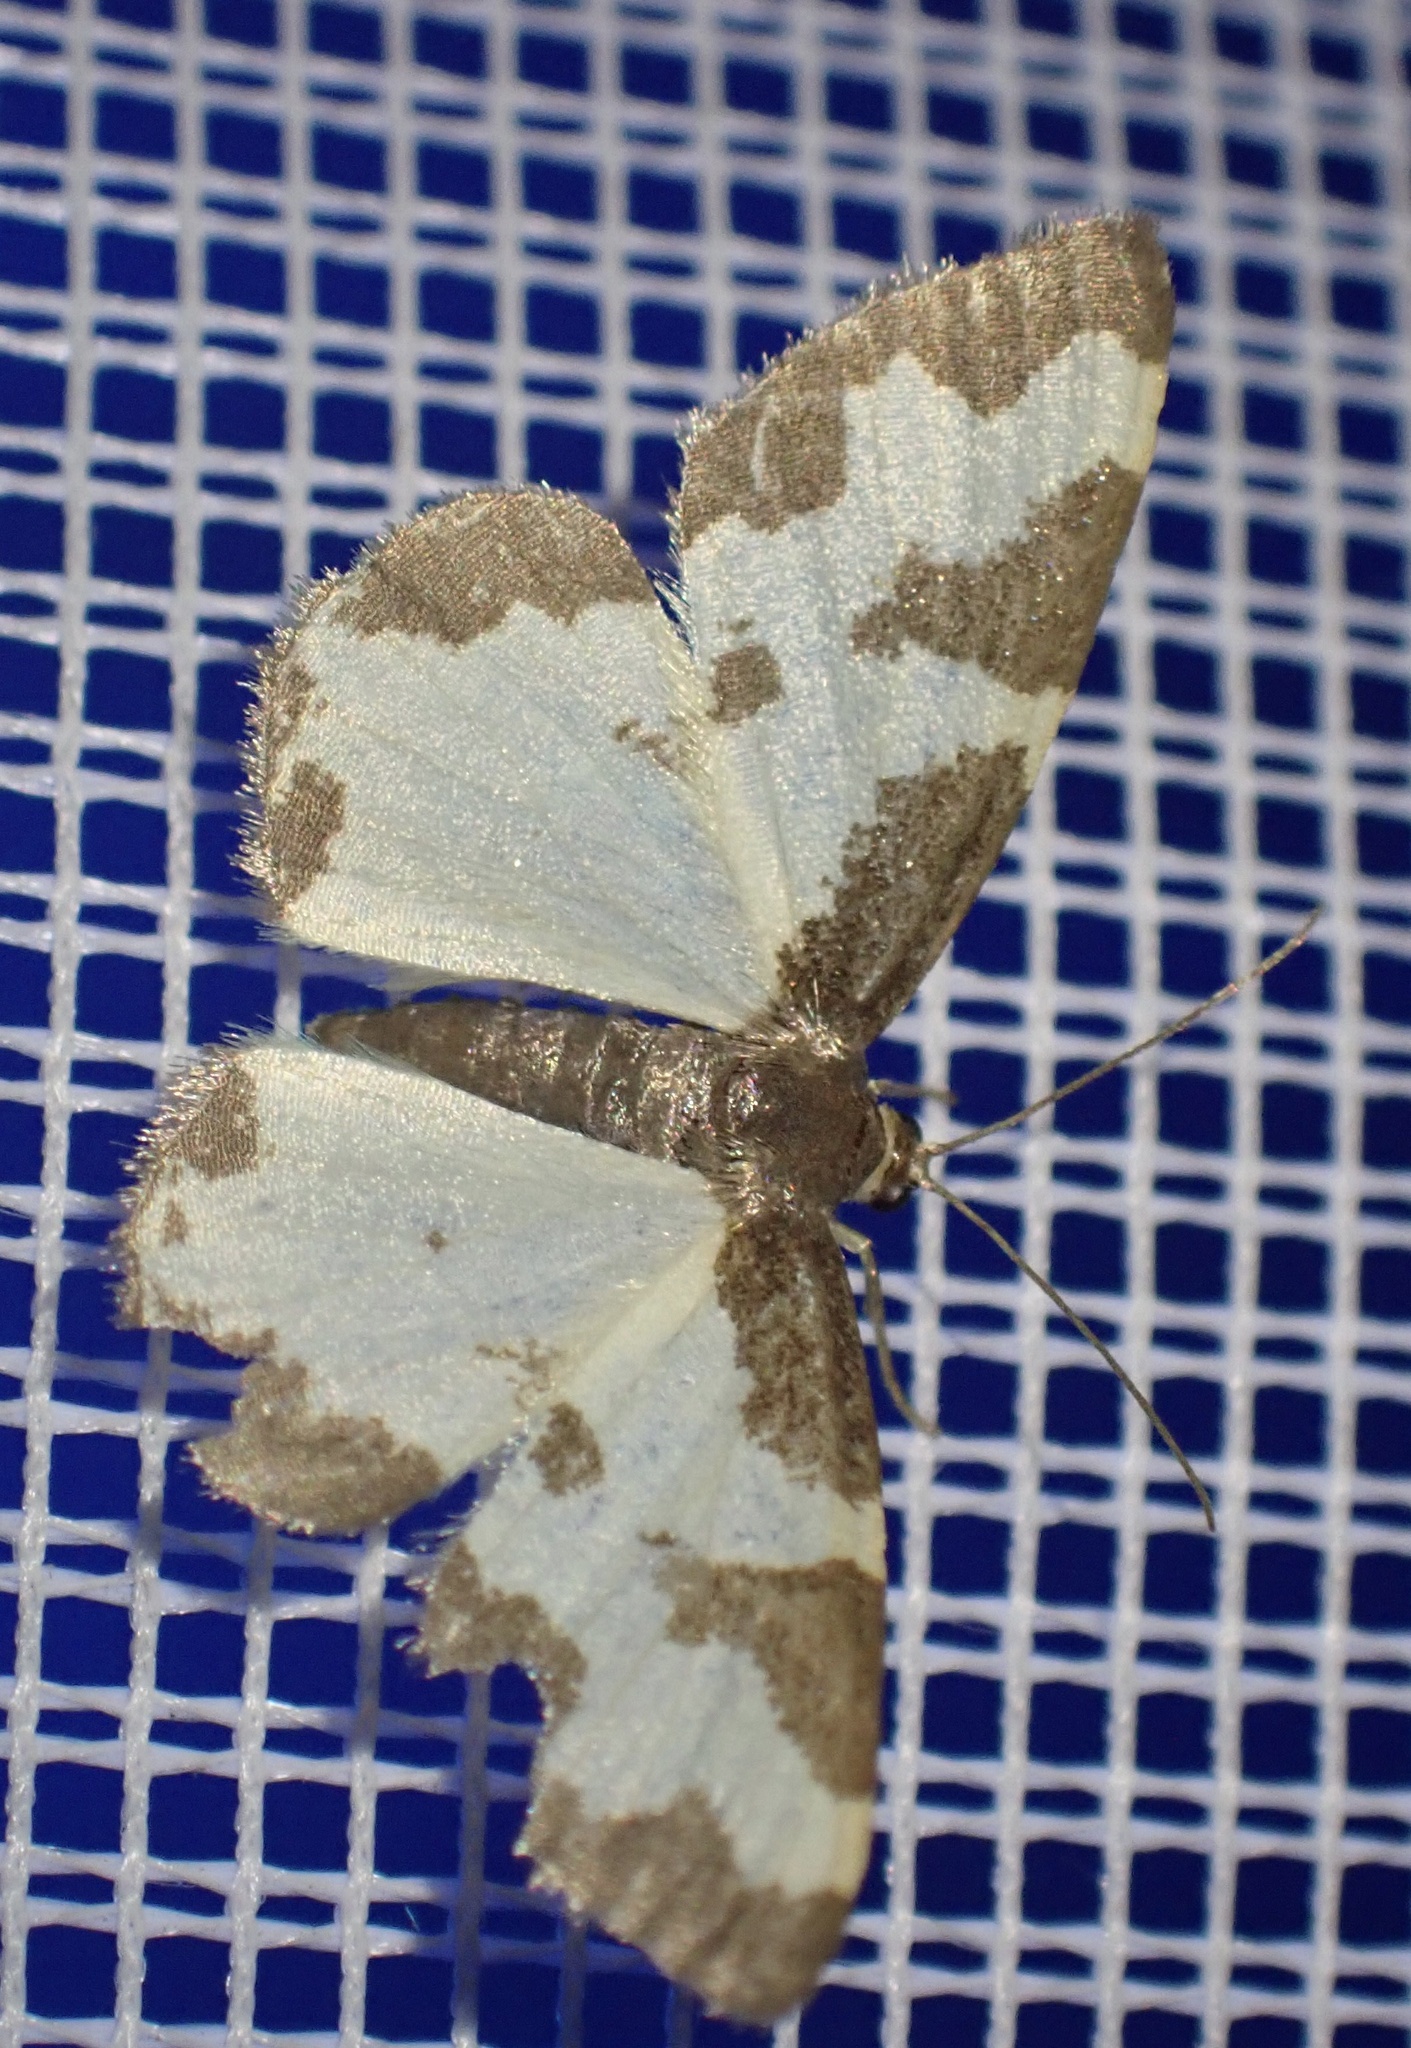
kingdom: Animalia
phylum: Arthropoda
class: Insecta
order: Lepidoptera
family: Geometridae
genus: Lomaspilis
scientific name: Lomaspilis marginata
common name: Clouded border
